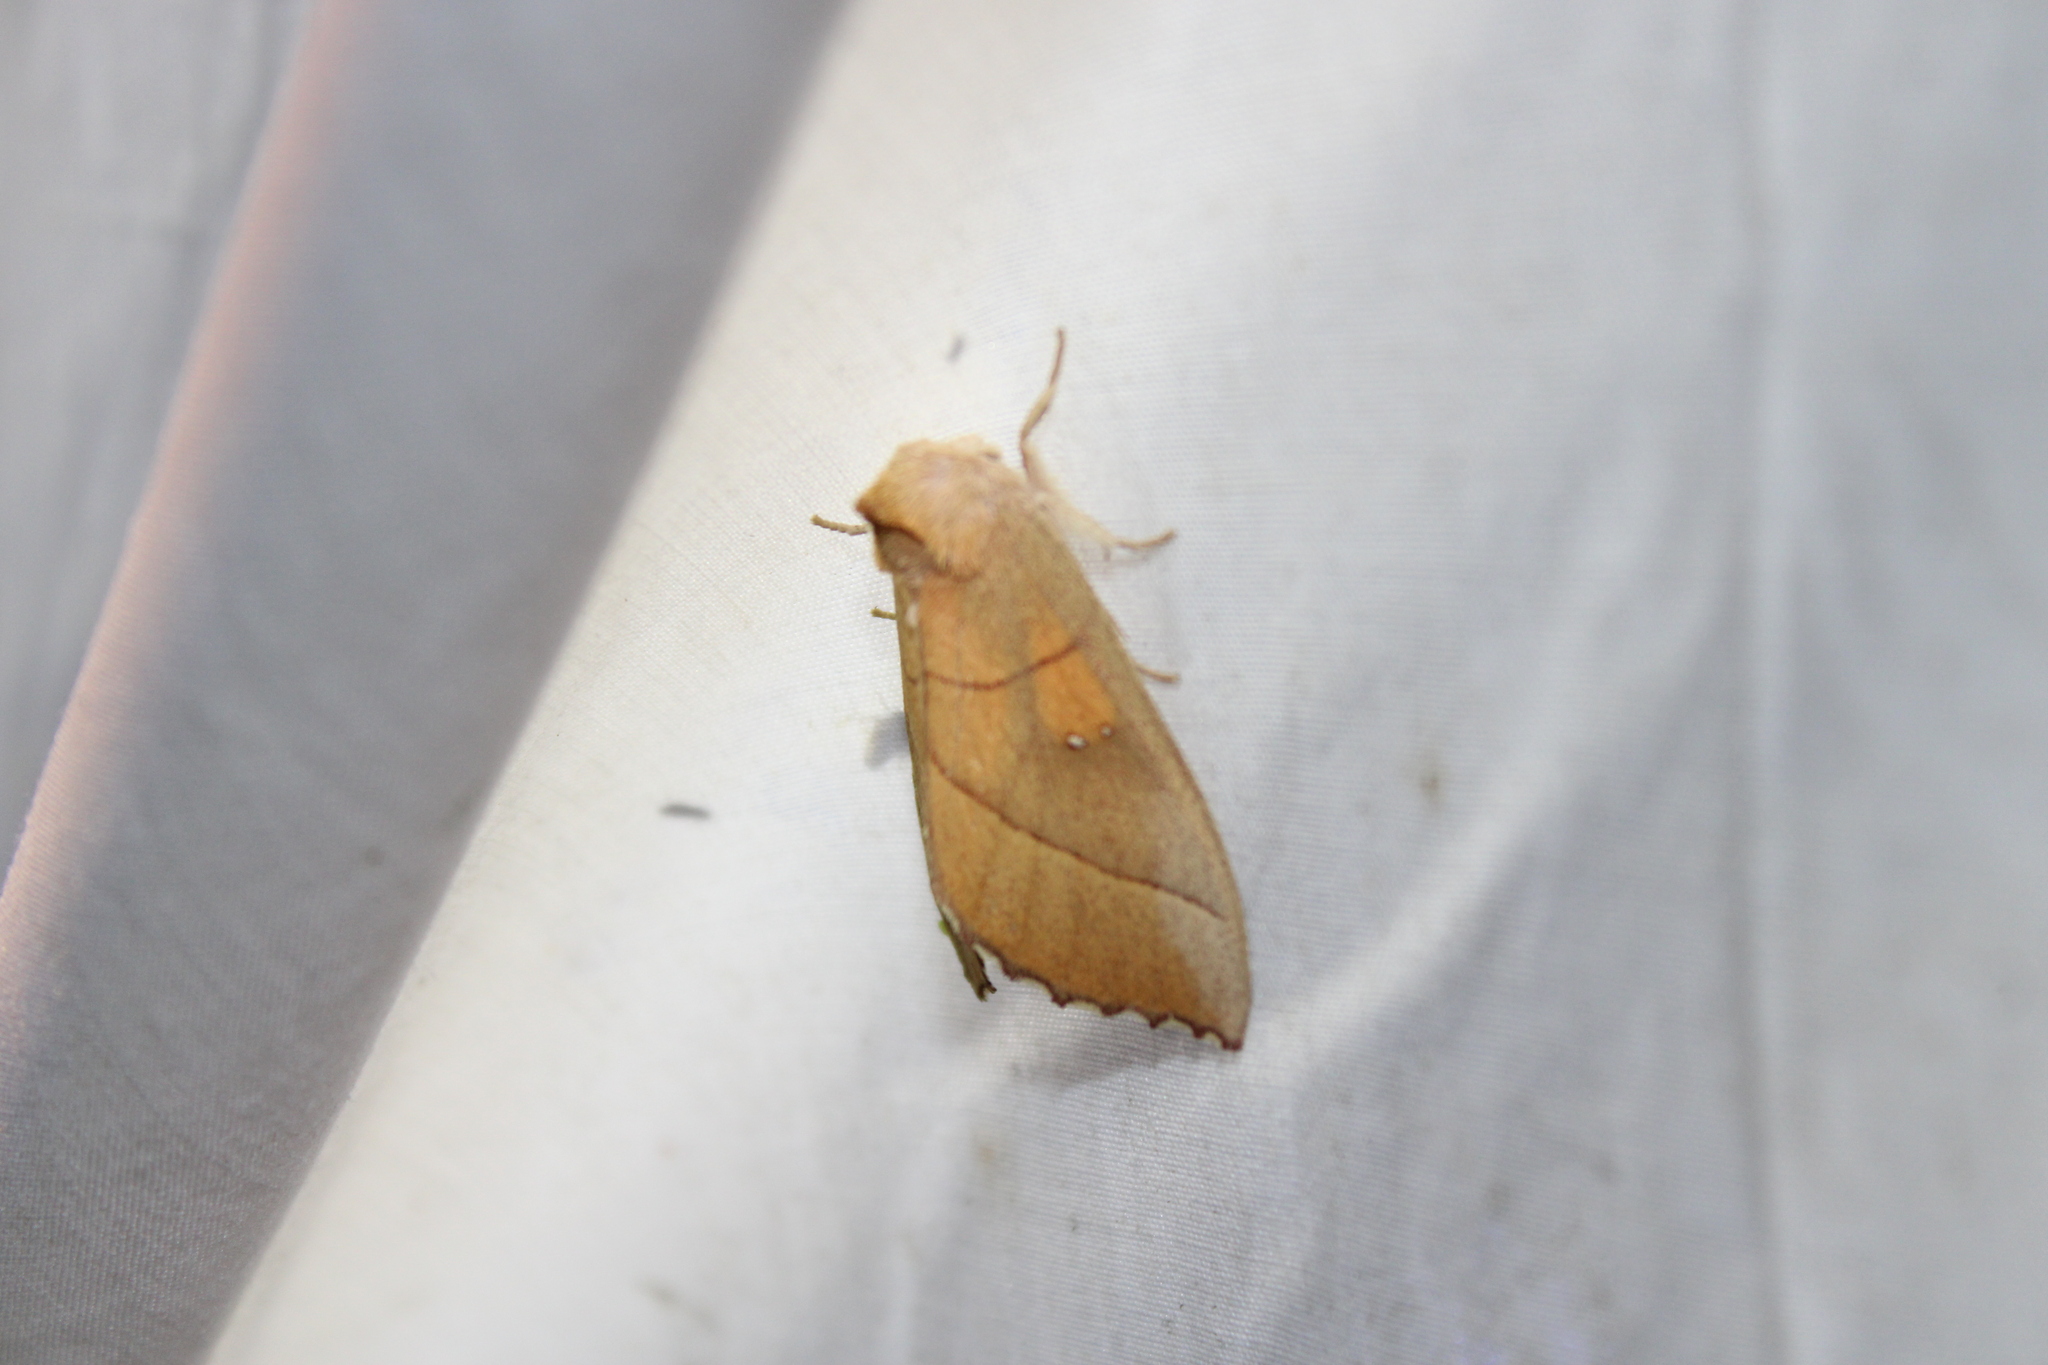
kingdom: Animalia
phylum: Arthropoda
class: Insecta
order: Lepidoptera
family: Notodontidae
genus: Nadata
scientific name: Nadata gibbosa
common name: White-dotted prominent
